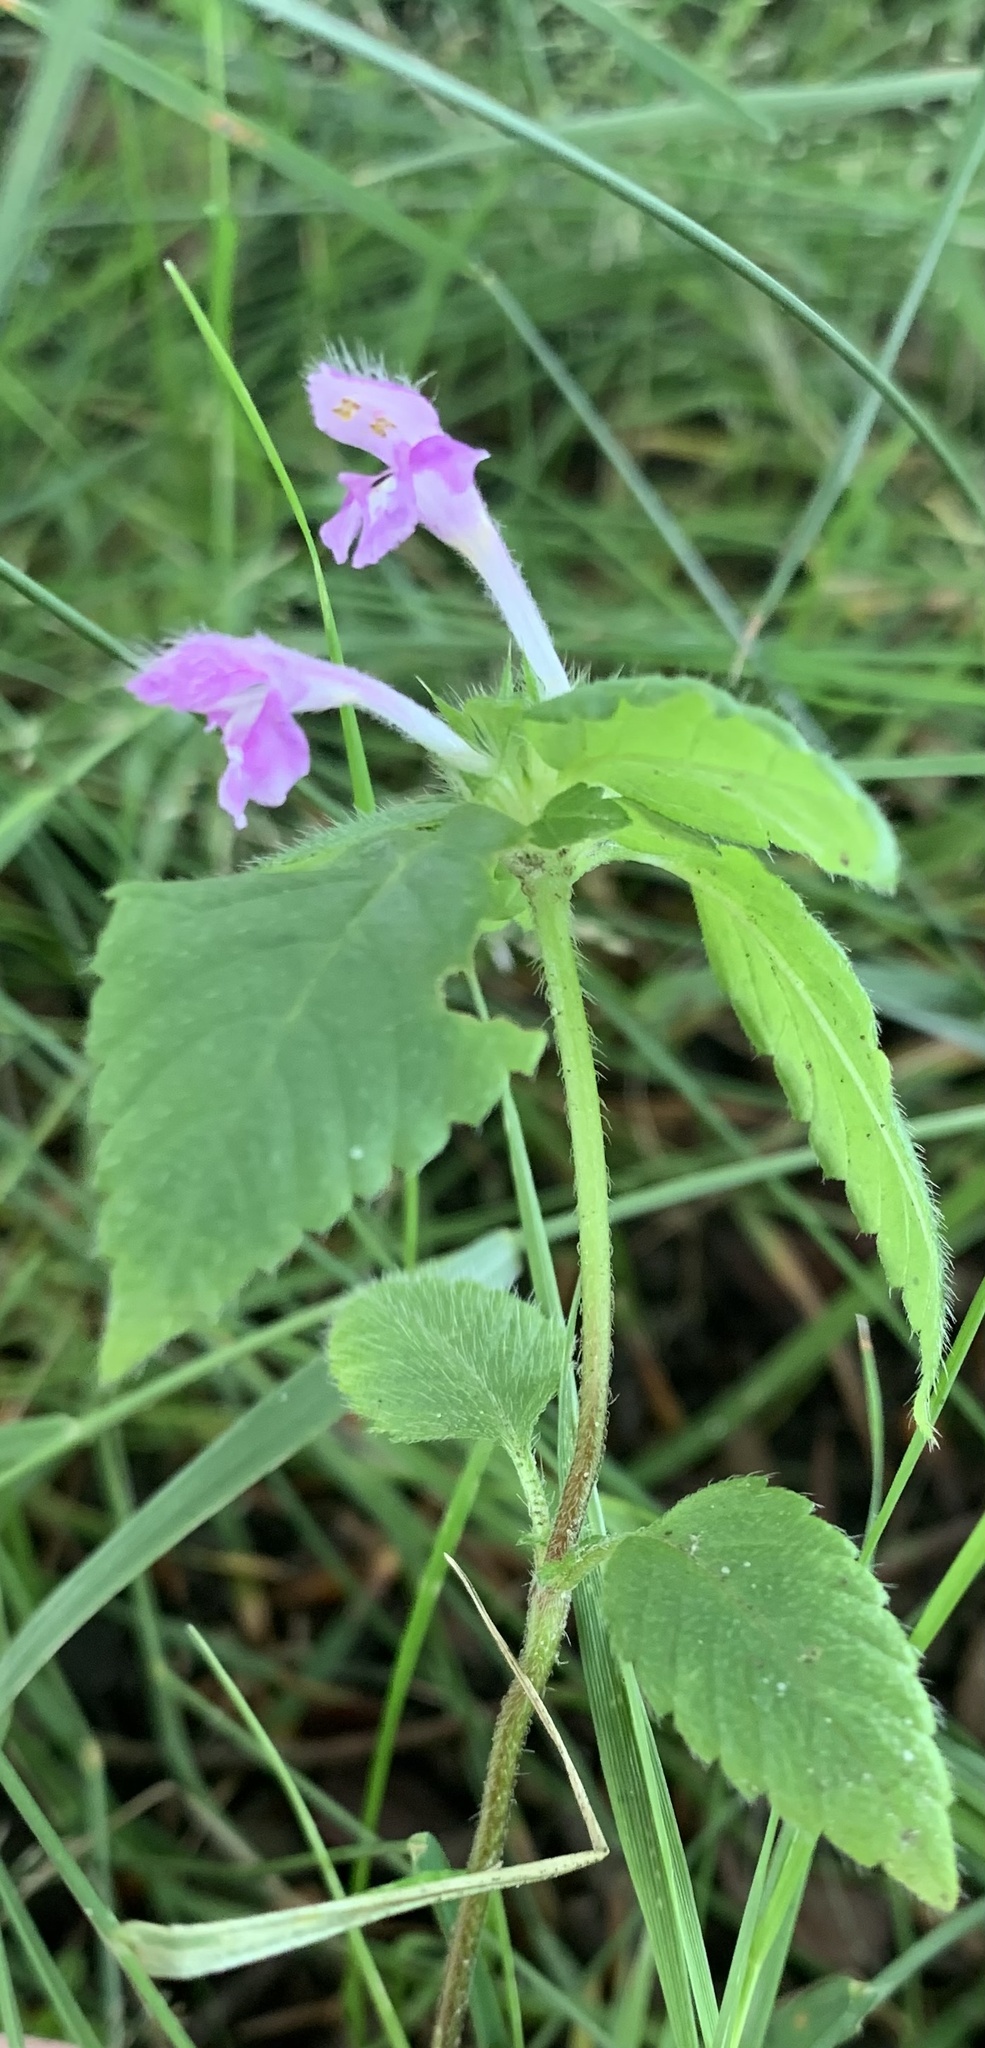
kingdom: Plantae
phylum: Tracheophyta
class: Magnoliopsida
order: Lamiales
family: Lamiaceae
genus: Galeopsis
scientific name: Galeopsis tetrahit
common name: Common hemp-nettle
